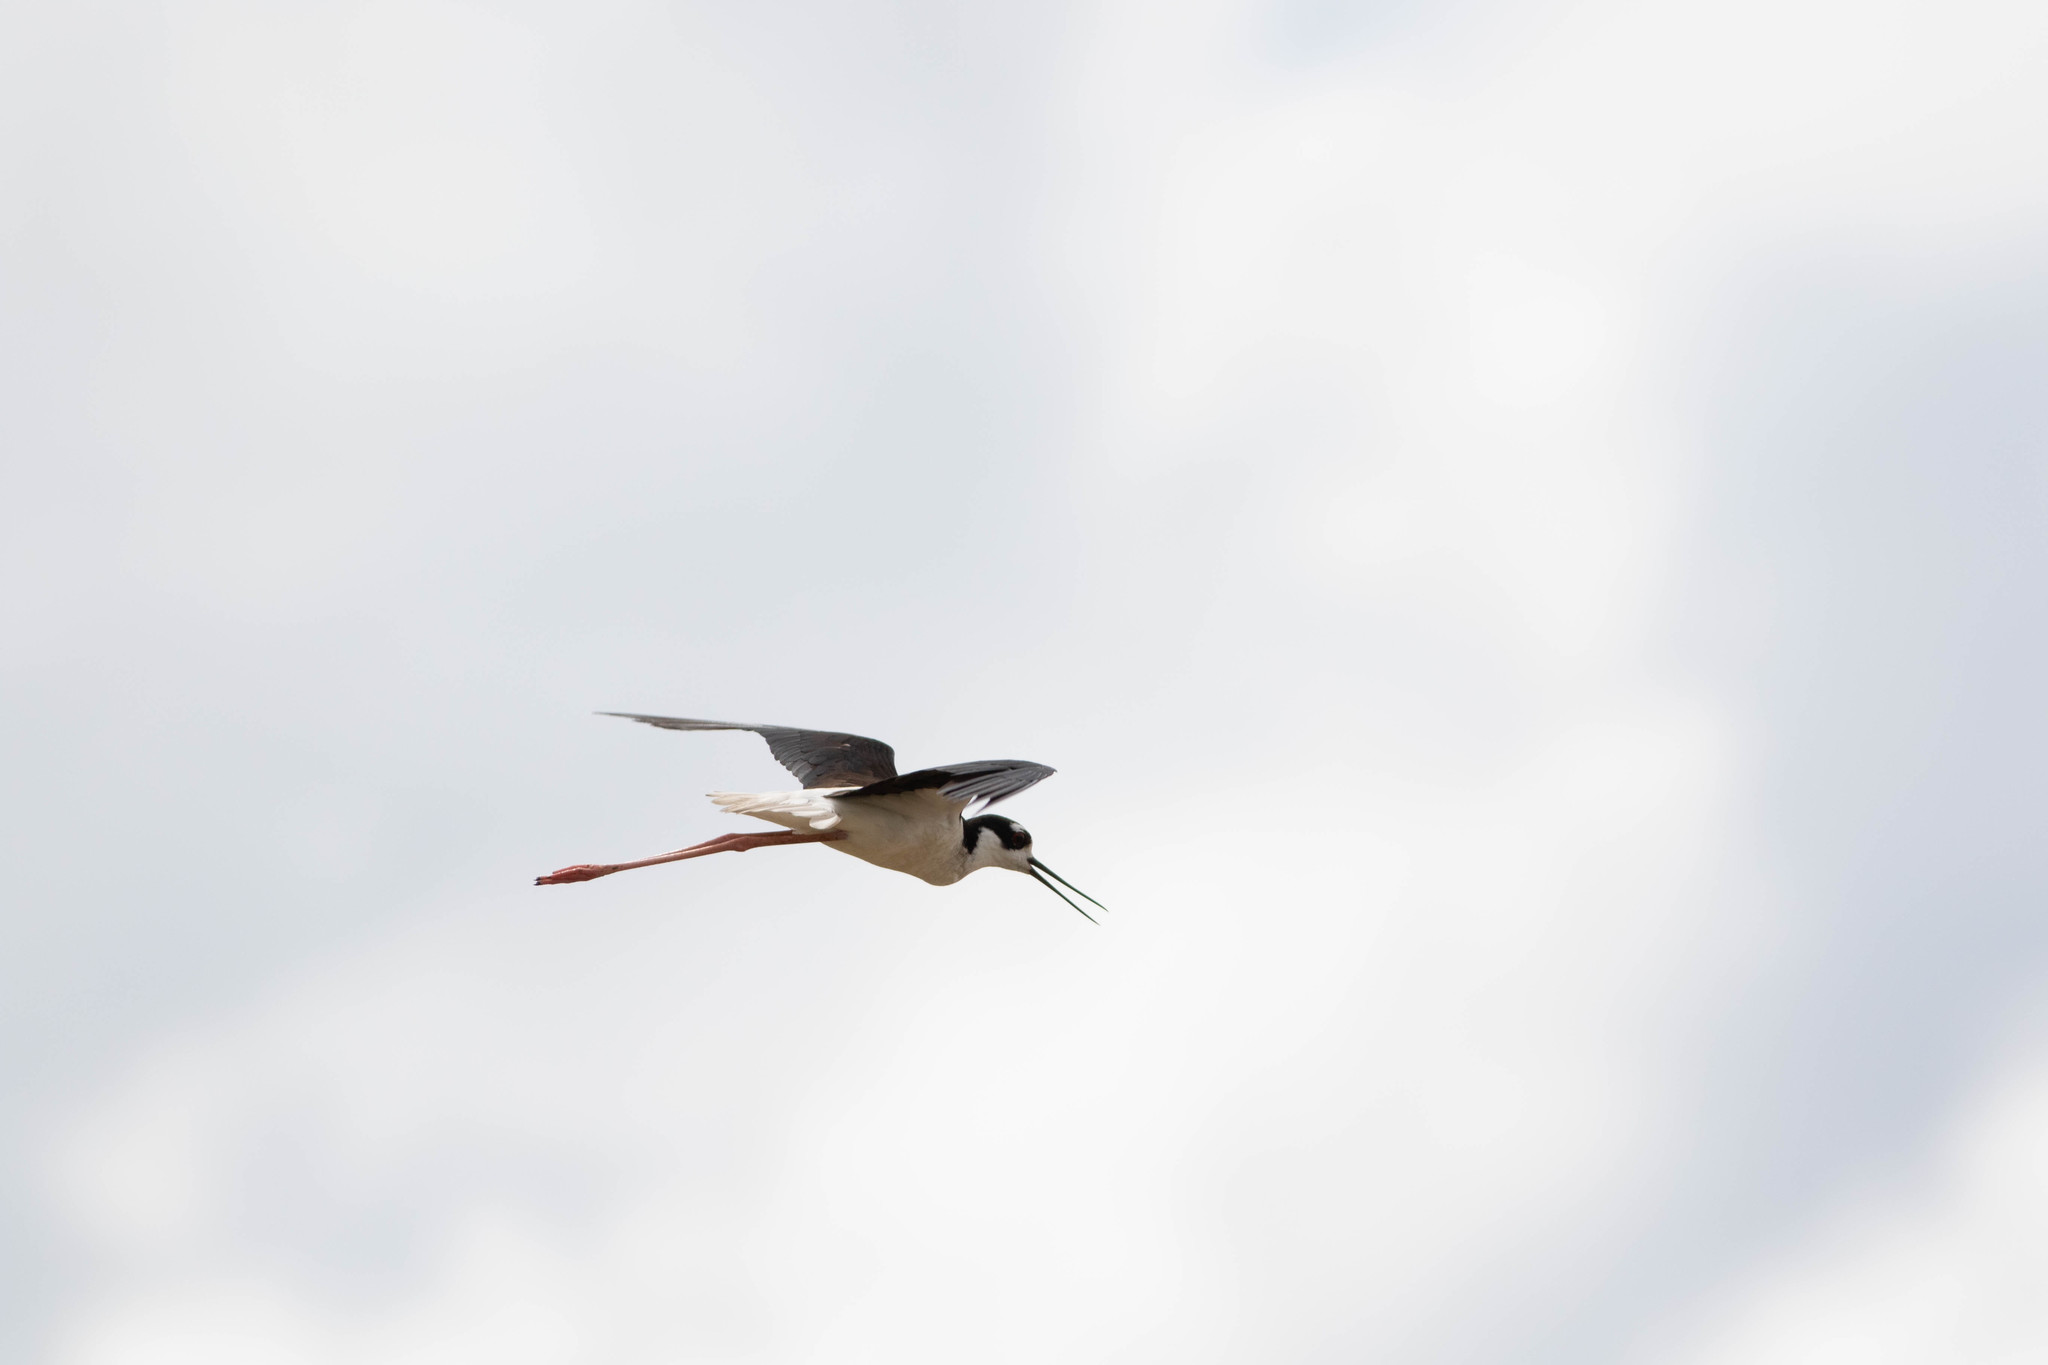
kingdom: Animalia
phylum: Chordata
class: Aves
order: Charadriiformes
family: Recurvirostridae
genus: Himantopus
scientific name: Himantopus mexicanus
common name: Black-necked stilt
